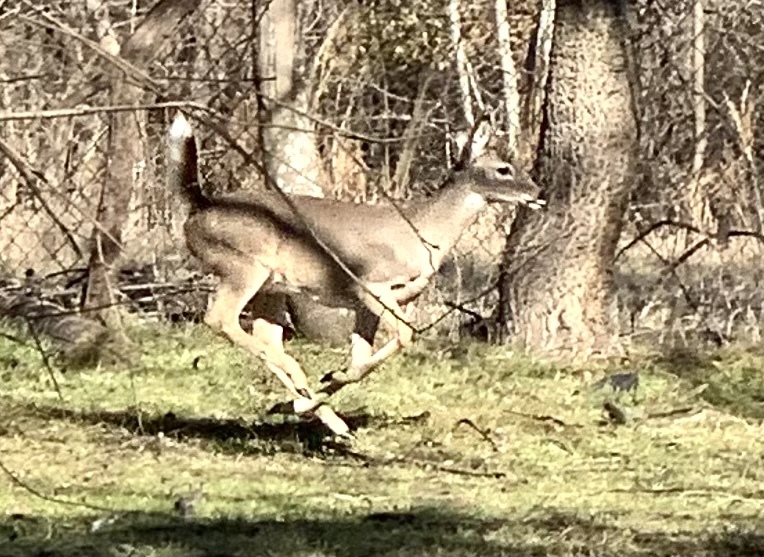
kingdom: Animalia
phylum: Chordata
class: Mammalia
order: Artiodactyla
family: Cervidae
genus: Odocoileus
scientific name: Odocoileus virginianus
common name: White-tailed deer
